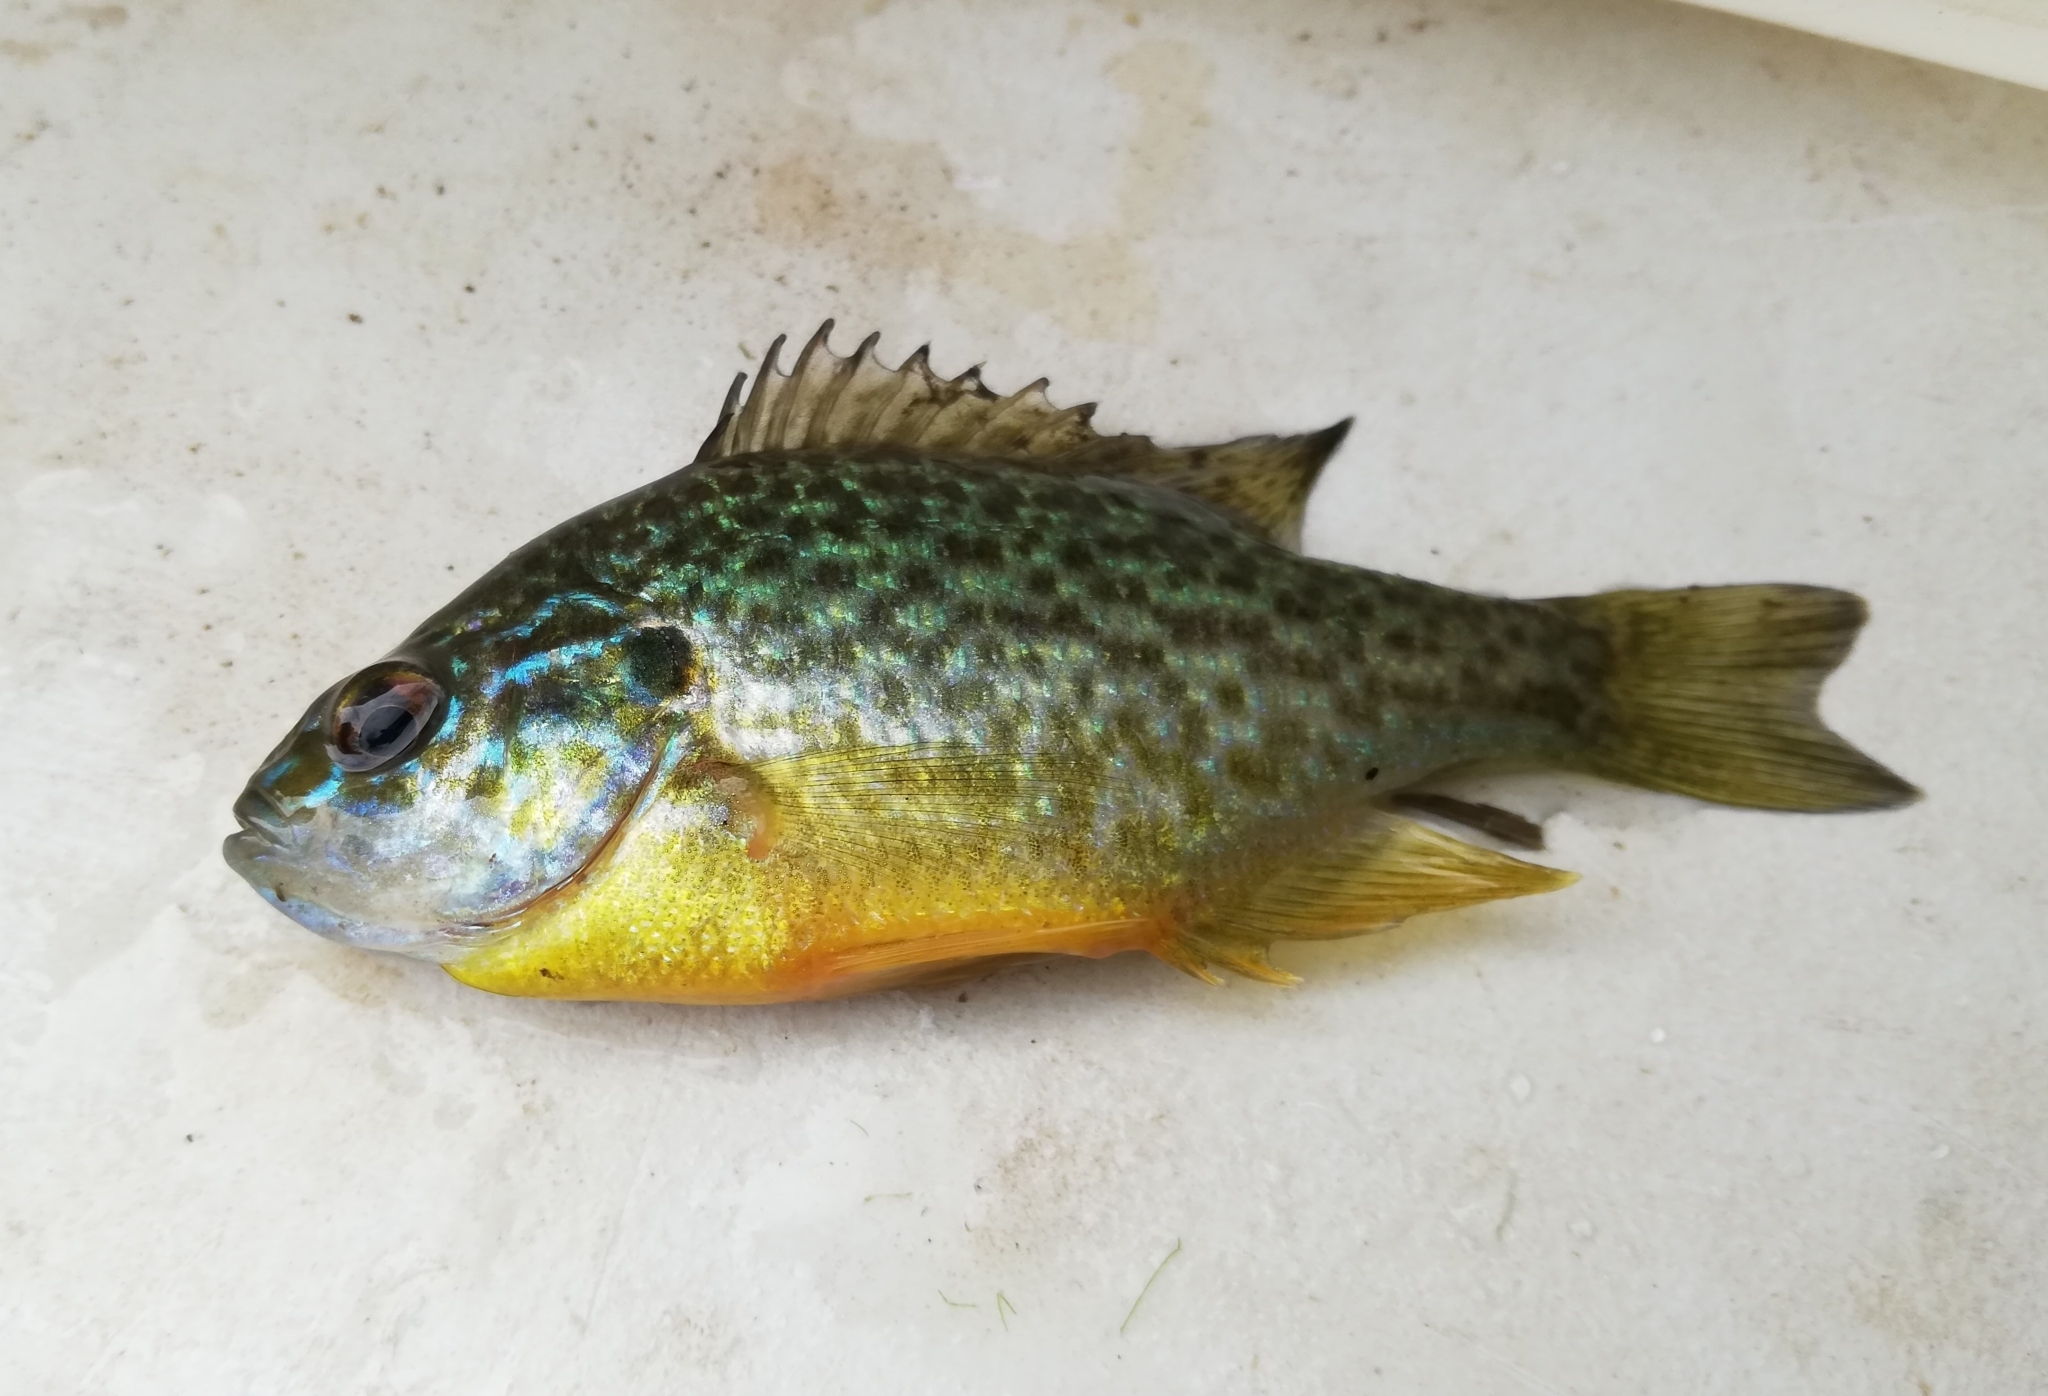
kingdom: Animalia
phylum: Chordata
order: Perciformes
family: Centrarchidae
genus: Lepomis
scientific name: Lepomis gibbosus
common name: Pumpkinseed
